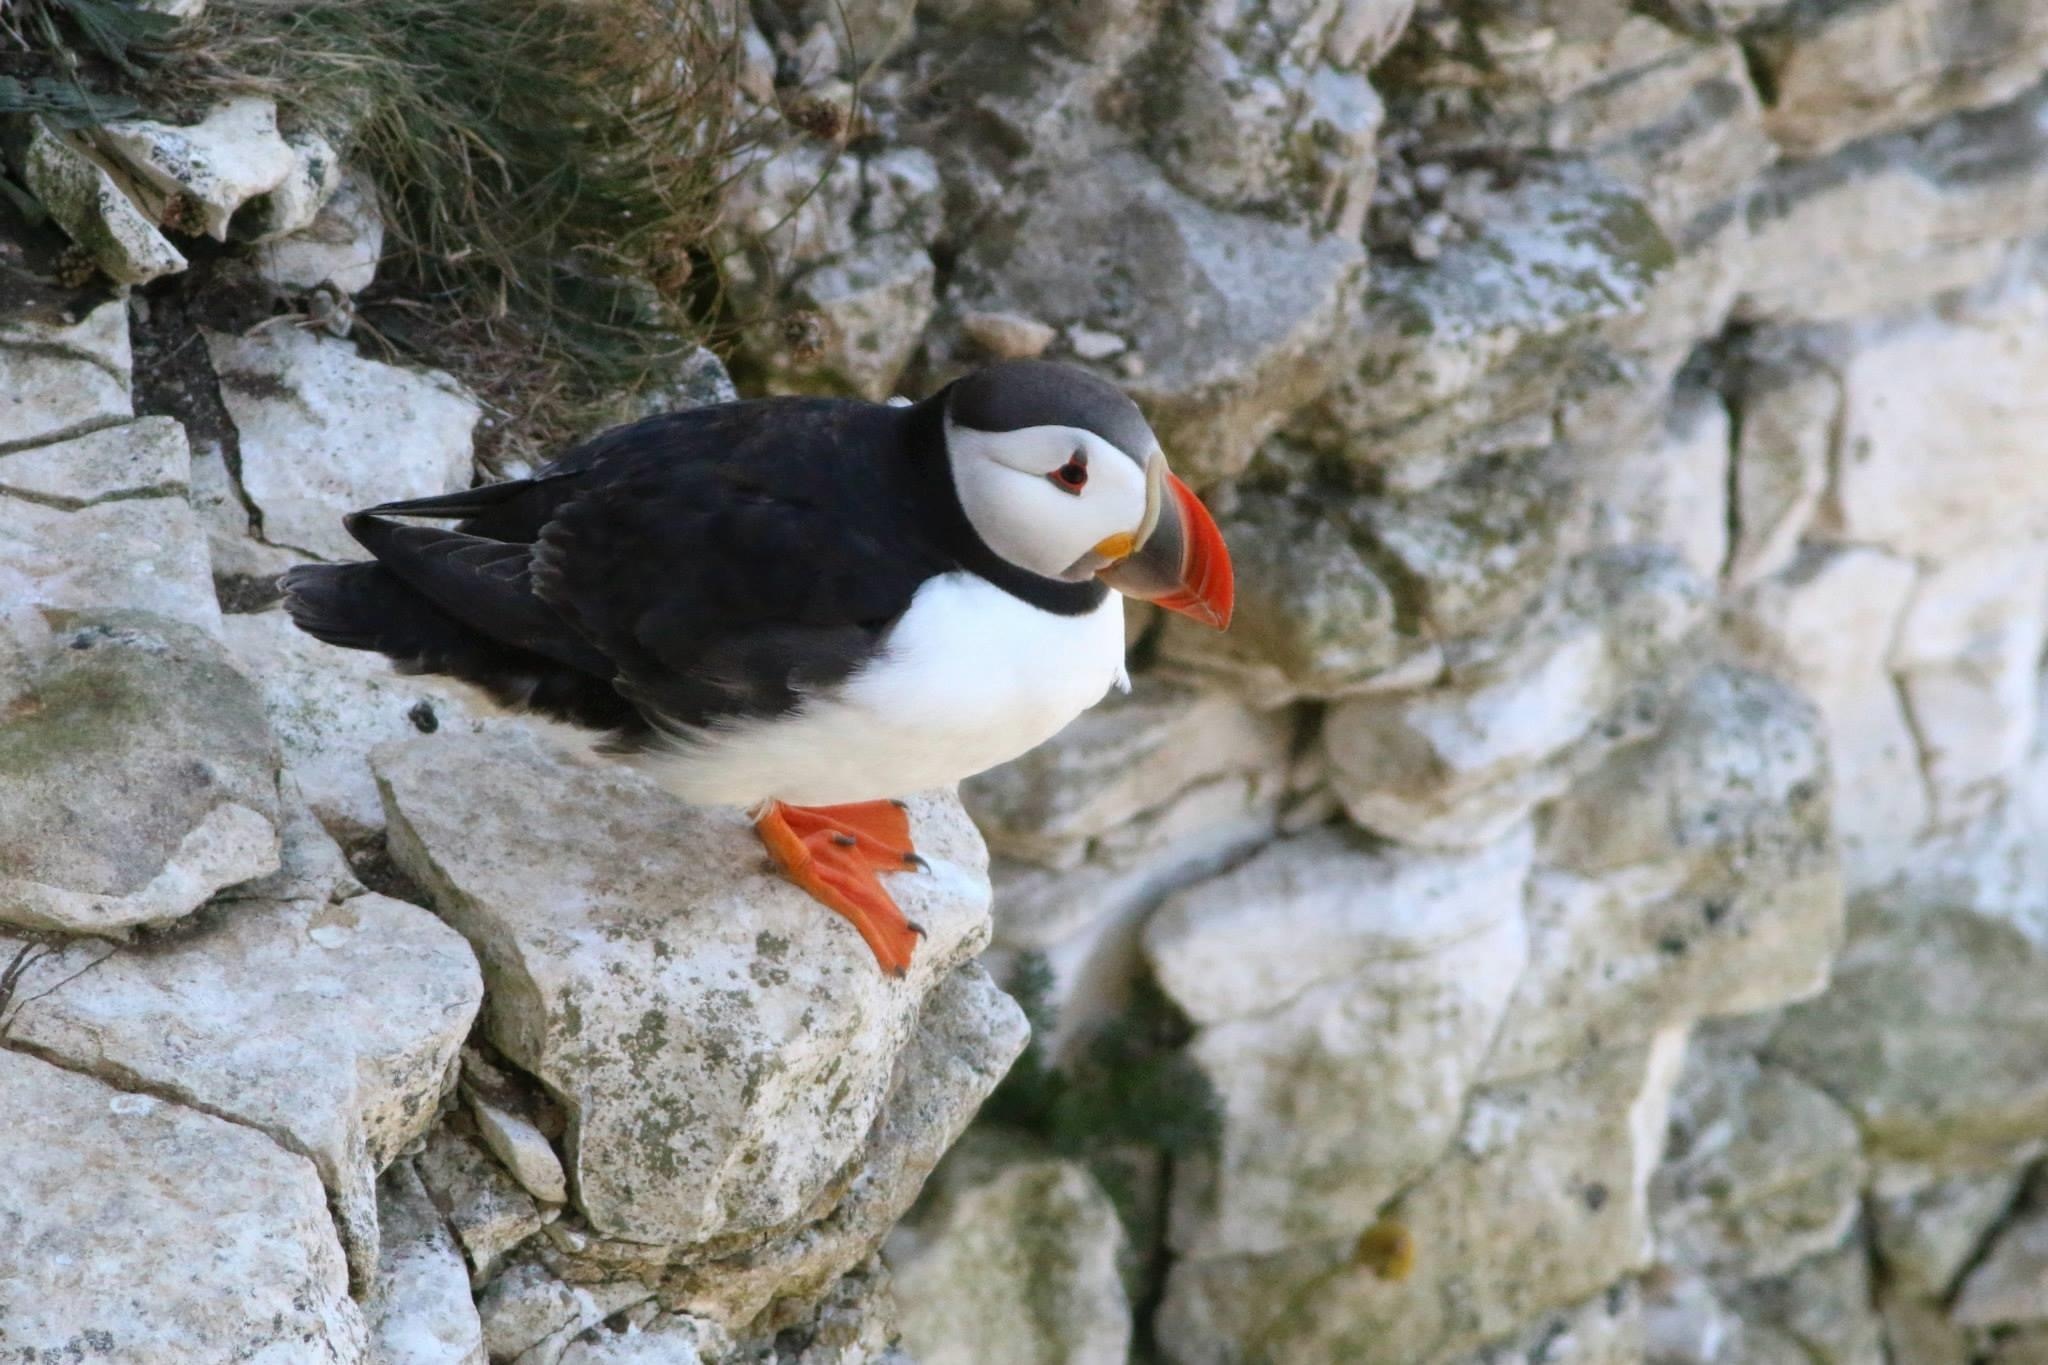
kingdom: Animalia
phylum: Chordata
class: Aves
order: Charadriiformes
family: Alcidae
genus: Fratercula
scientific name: Fratercula arctica
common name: Atlantic puffin
